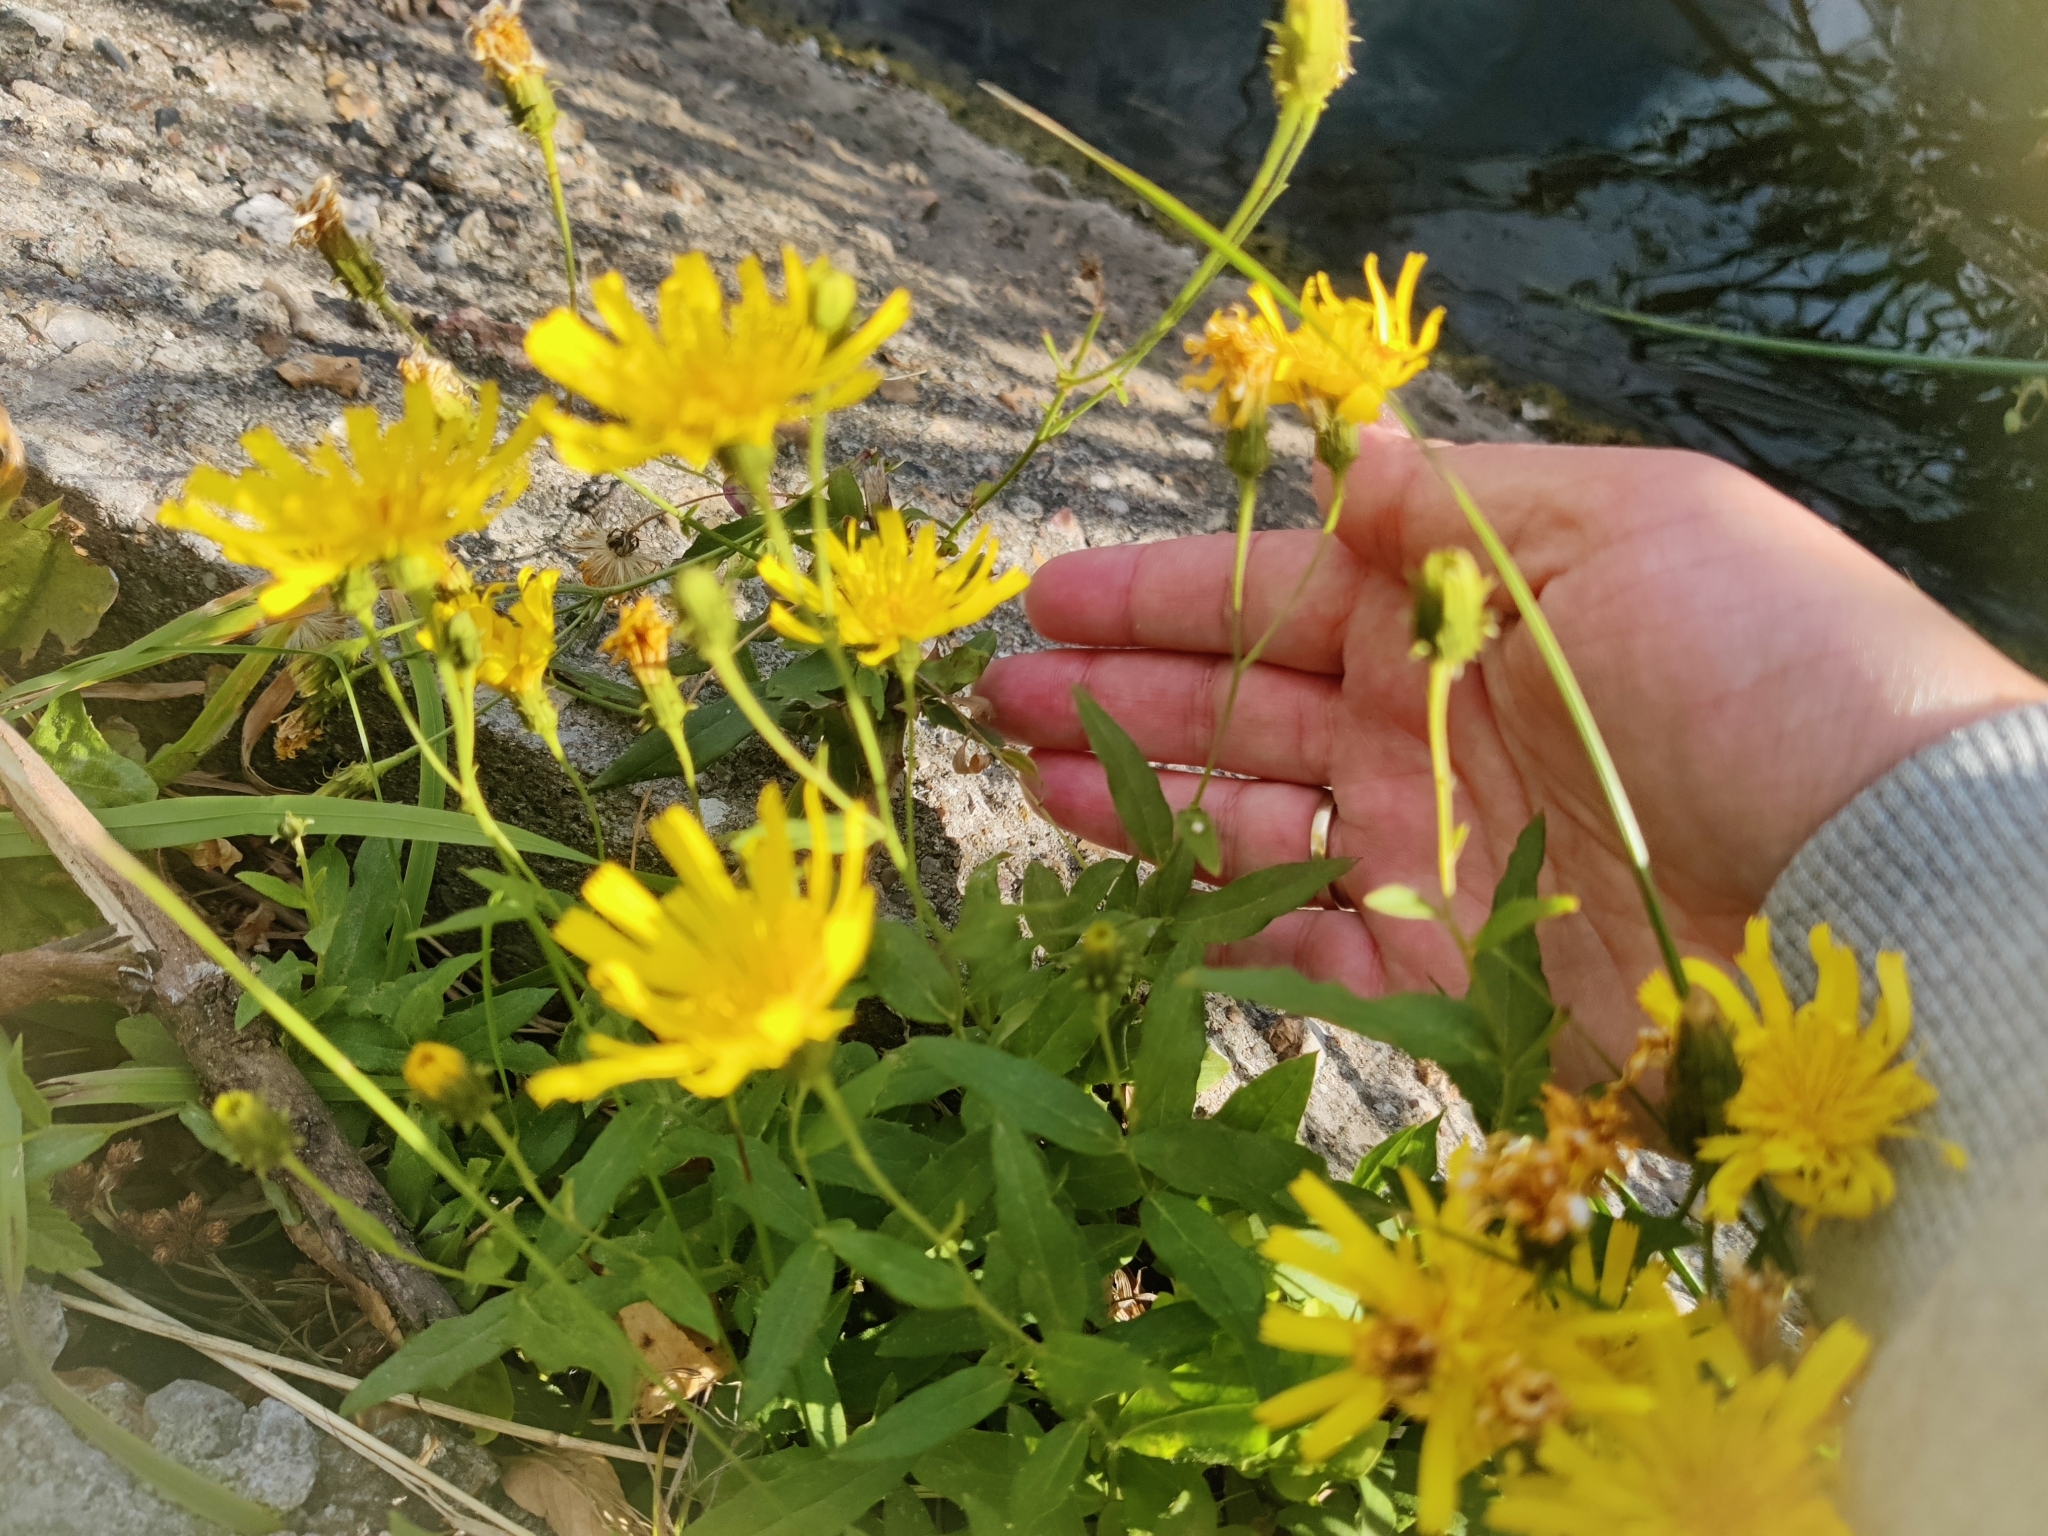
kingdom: Plantae
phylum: Tracheophyta
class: Magnoliopsida
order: Asterales
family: Asteraceae
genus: Hieracium
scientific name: Hieracium umbellatum
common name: Northern hawkweed
